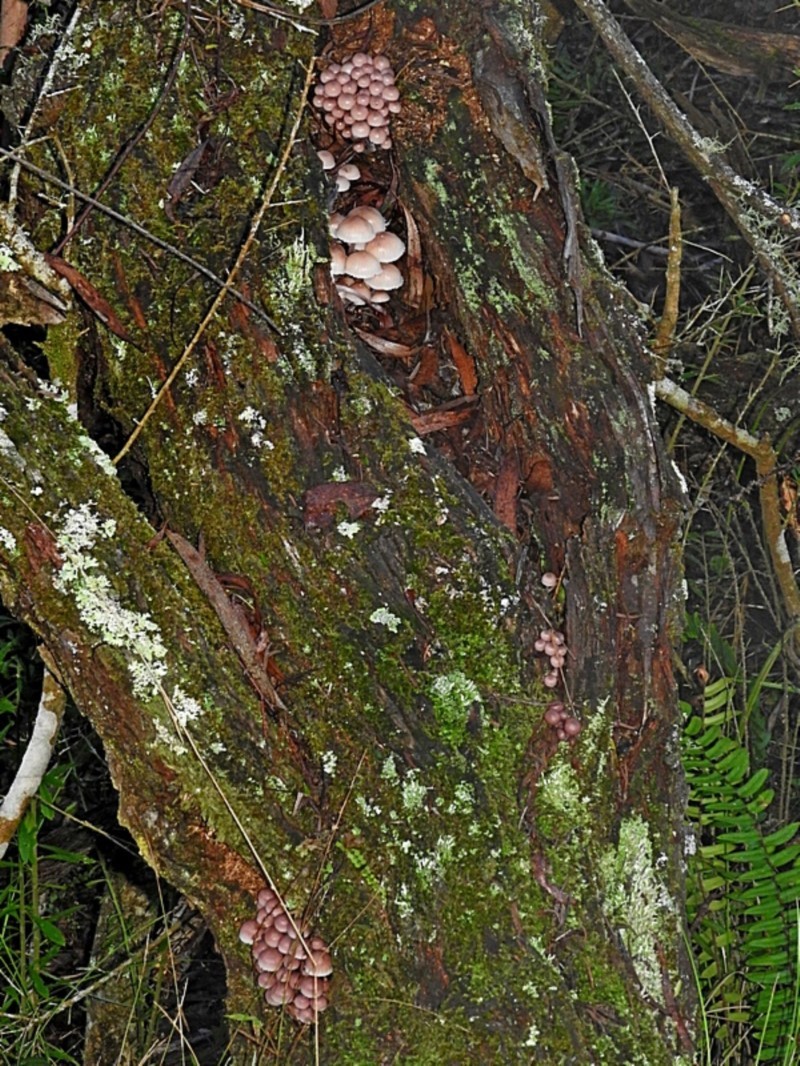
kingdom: Fungi
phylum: Basidiomycota
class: Agaricomycetes
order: Agaricales
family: Mycenaceae
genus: Mycena
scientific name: Mycena clarkeana
